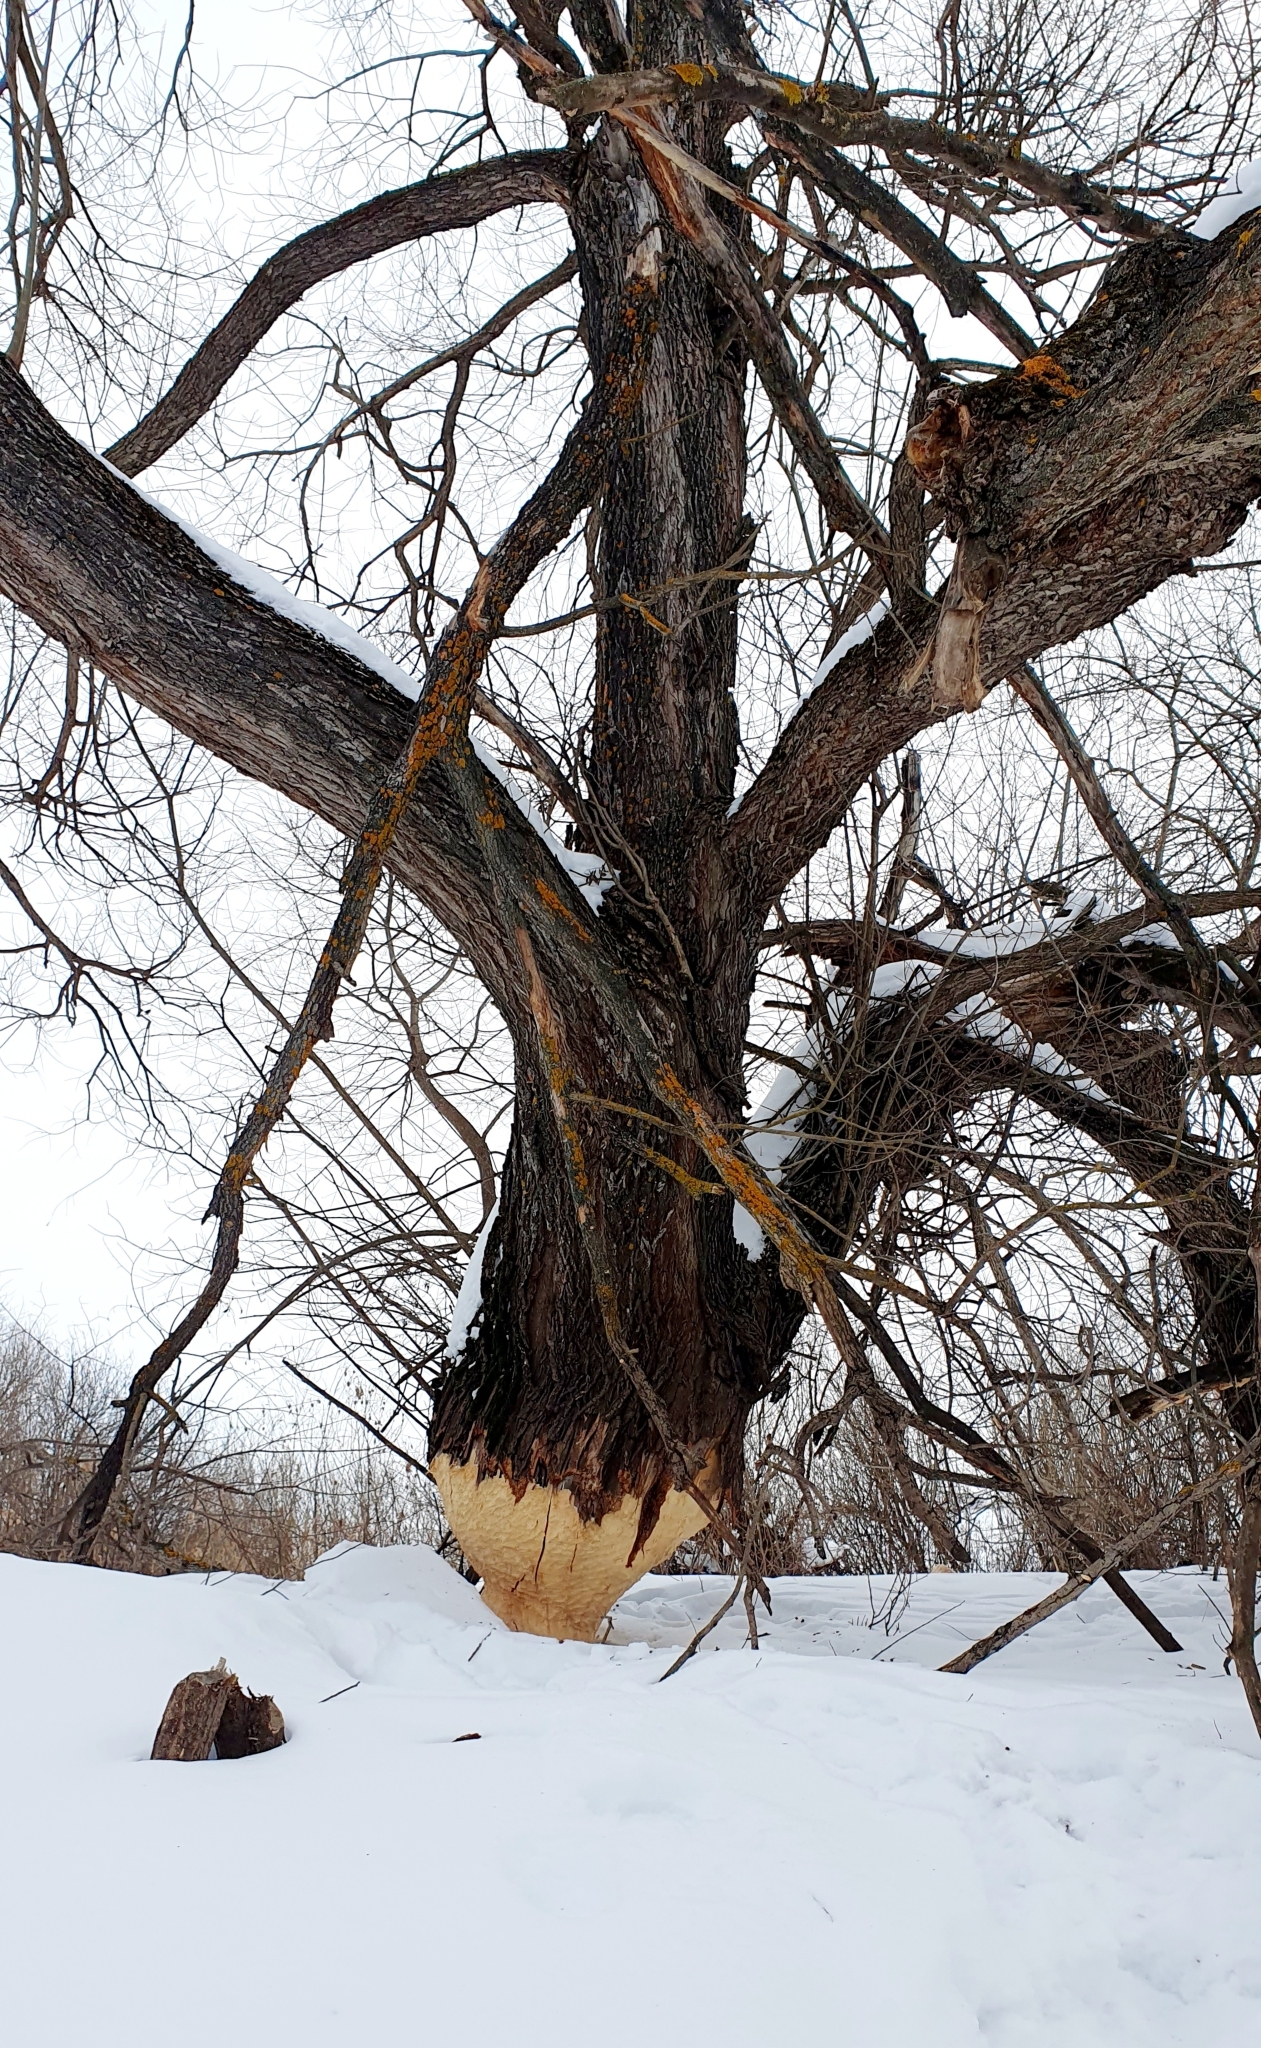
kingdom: Animalia
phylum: Chordata
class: Mammalia
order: Rodentia
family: Castoridae
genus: Castor
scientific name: Castor fiber
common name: Eurasian beaver
